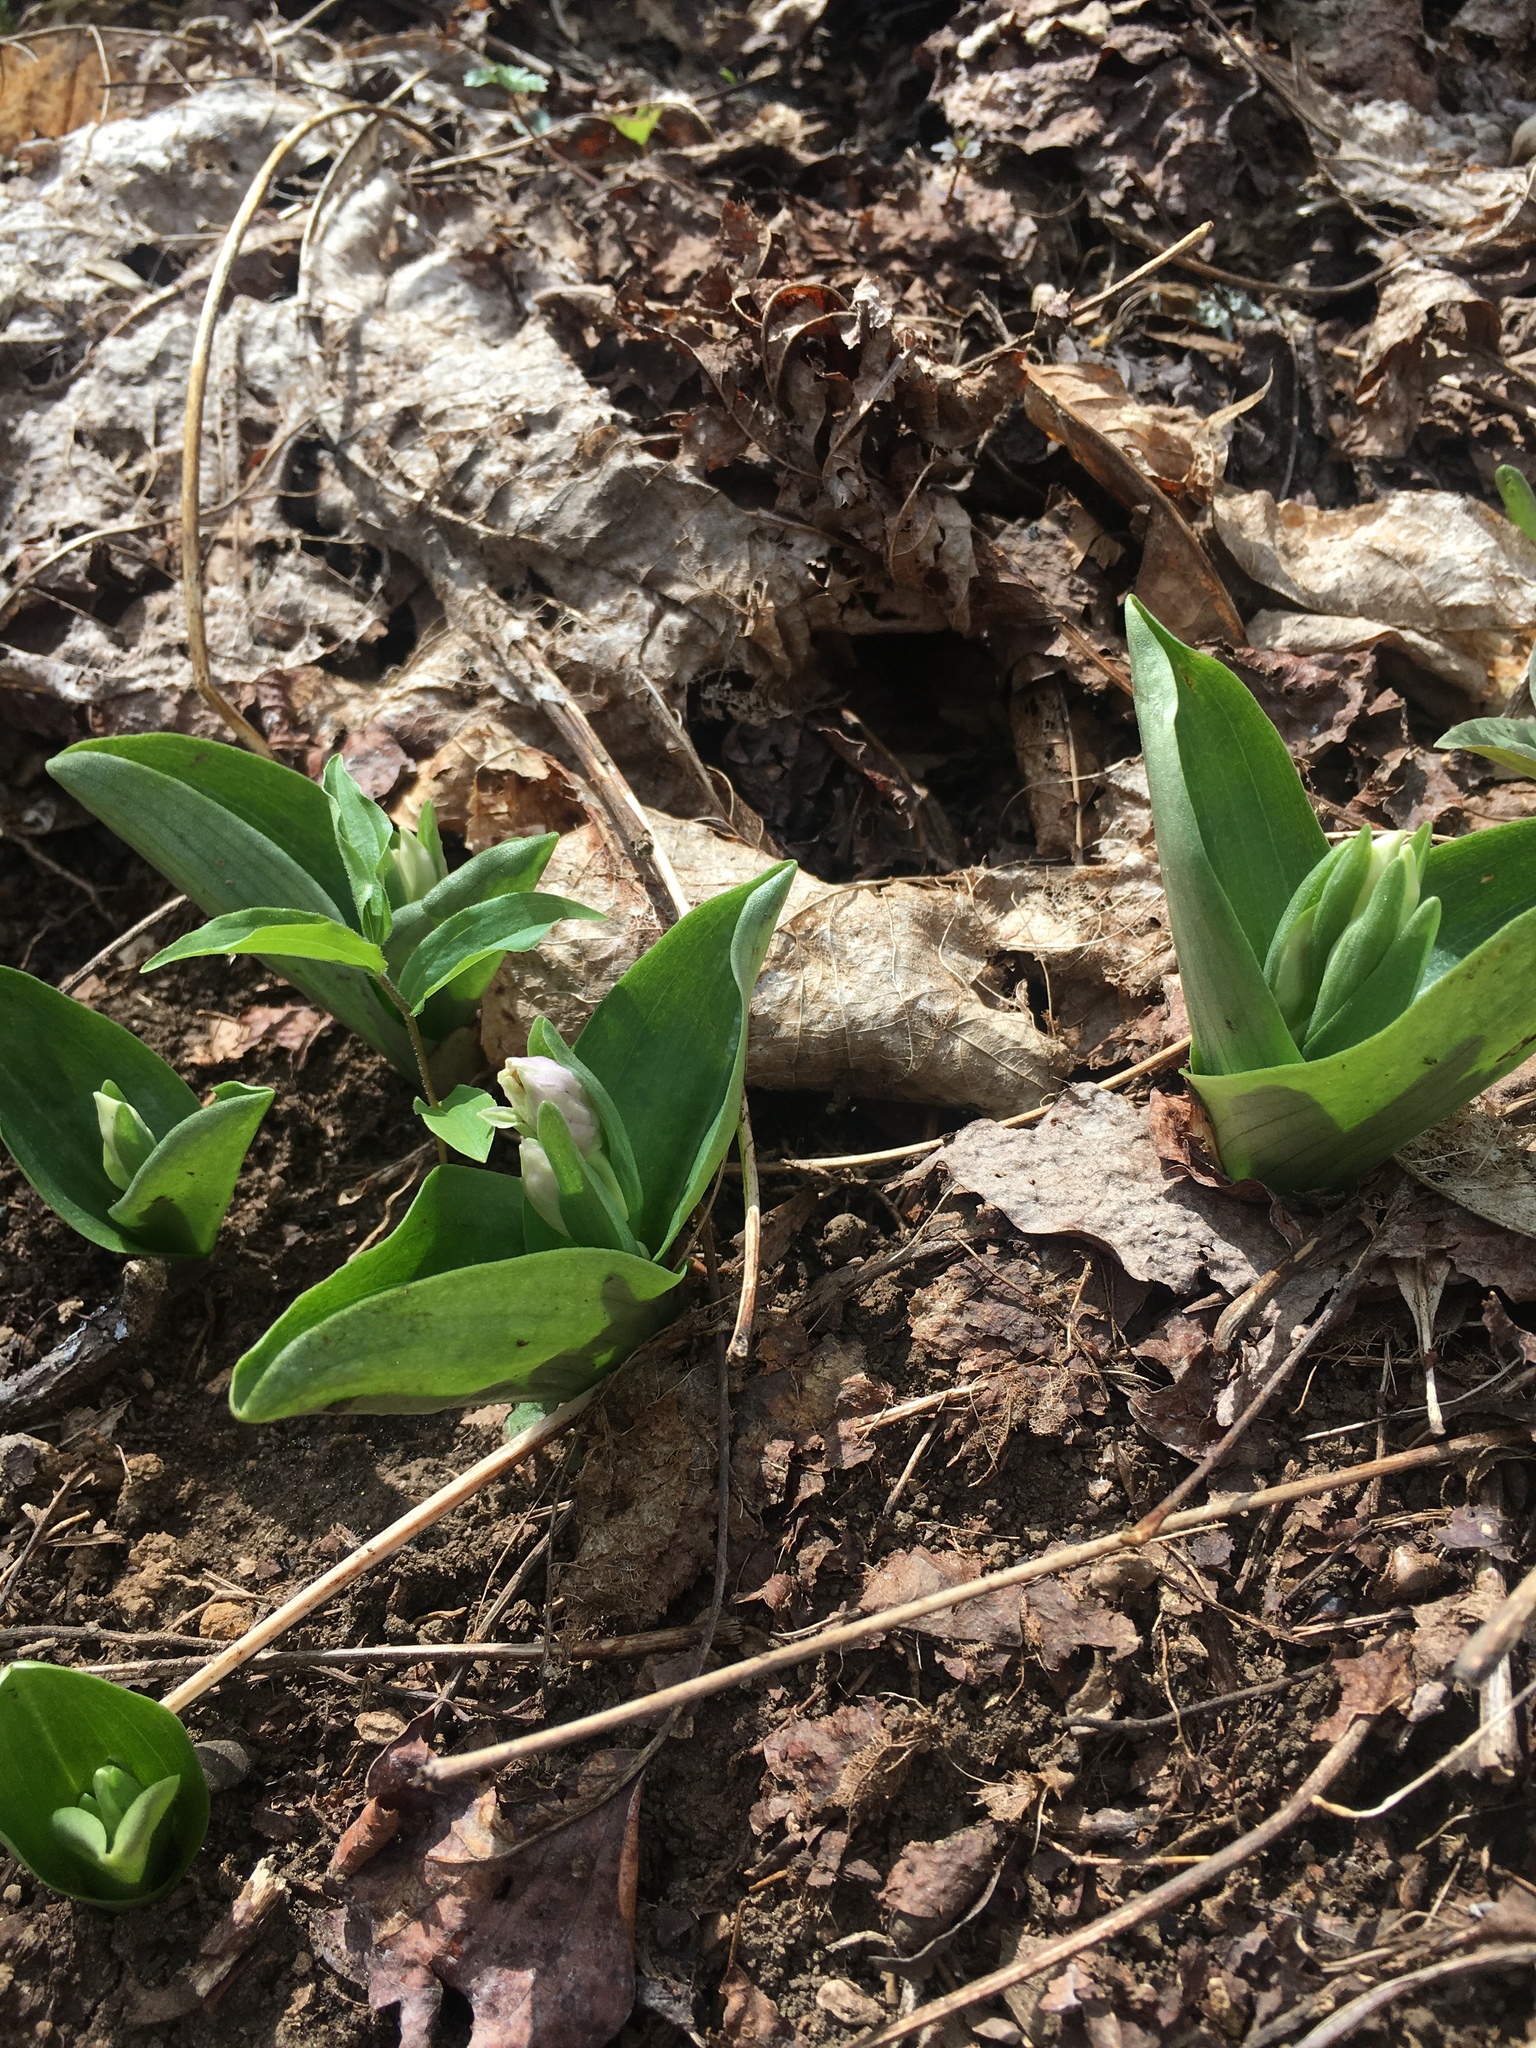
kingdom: Plantae
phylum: Tracheophyta
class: Liliopsida
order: Asparagales
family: Orchidaceae
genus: Galearis
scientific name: Galearis spectabilis
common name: Purple-hooded orchis
